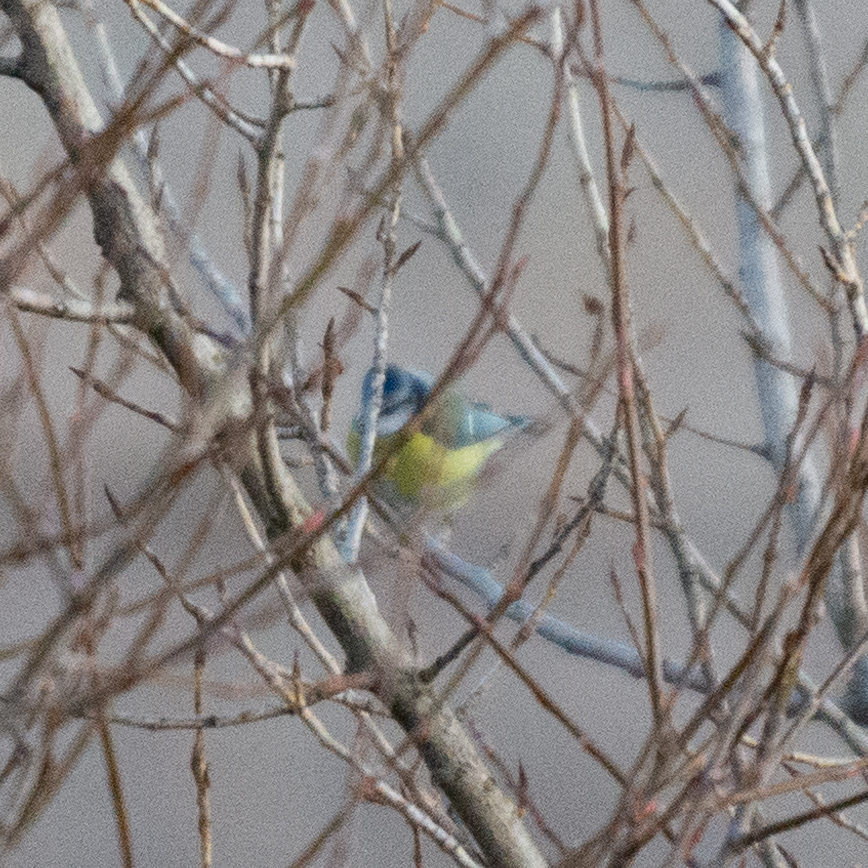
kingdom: Animalia
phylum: Chordata
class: Aves
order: Passeriformes
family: Paridae
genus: Cyanistes
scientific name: Cyanistes caeruleus
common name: Eurasian blue tit
